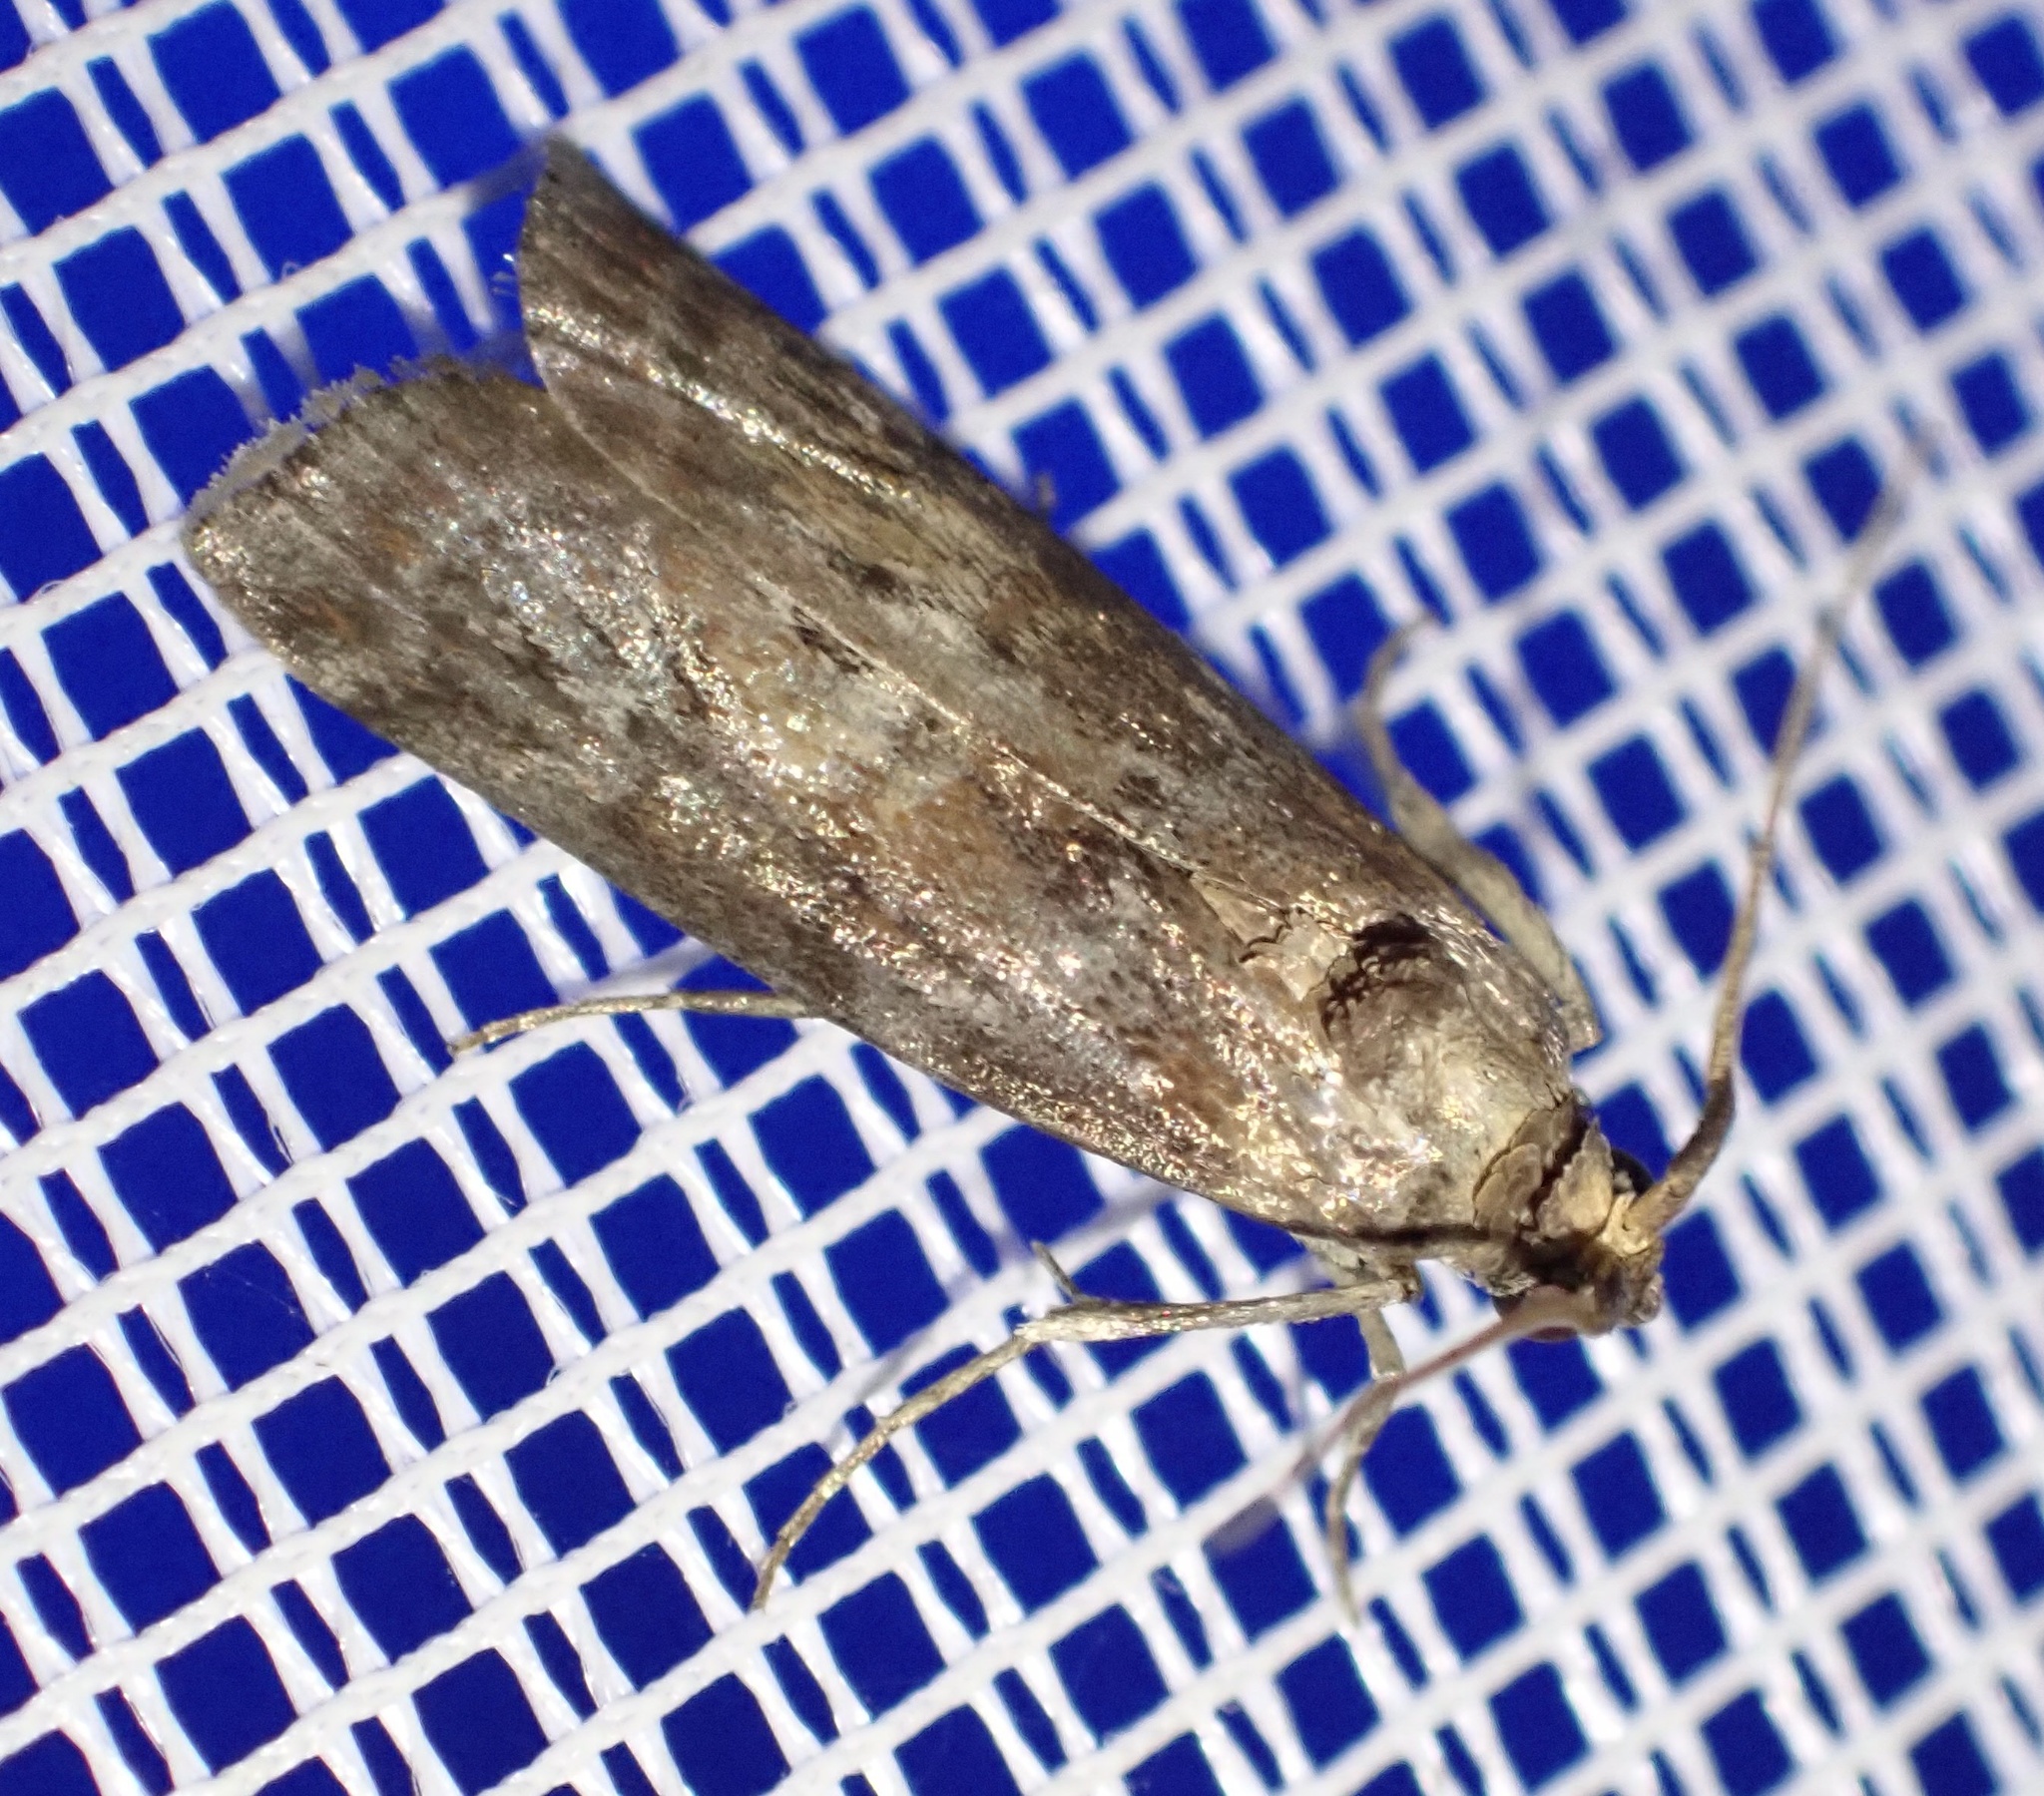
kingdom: Animalia
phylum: Arthropoda
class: Insecta
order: Lepidoptera
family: Pyralidae
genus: Phycita
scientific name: Phycita roborella
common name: Dotted oak knot-horn
